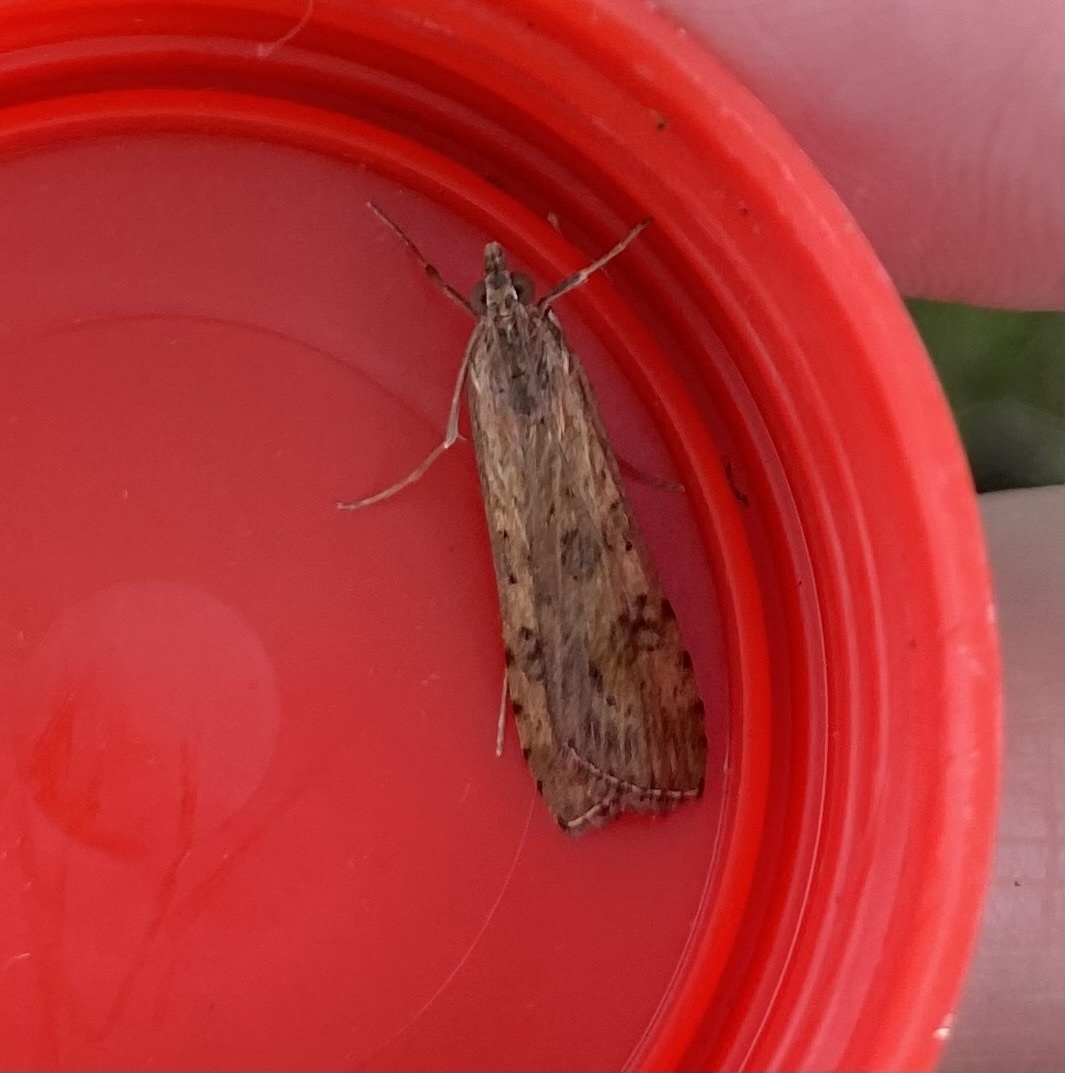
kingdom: Animalia
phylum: Arthropoda
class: Insecta
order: Lepidoptera
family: Crambidae
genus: Nomophila
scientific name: Nomophila noctuella
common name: Rush veneer
